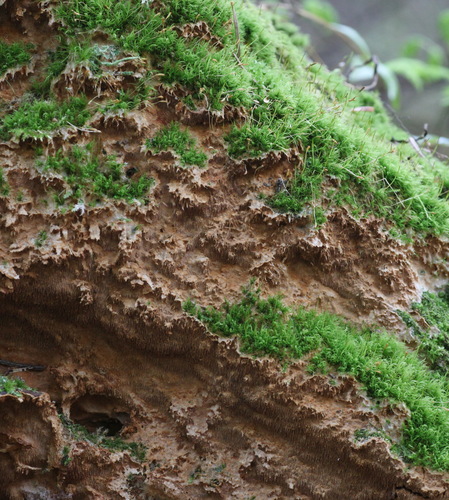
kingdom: Fungi
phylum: Basidiomycota
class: Agaricomycetes
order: Hymenochaetales
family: Hymenochaetaceae
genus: Asterodon
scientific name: Asterodon ferruginosus
